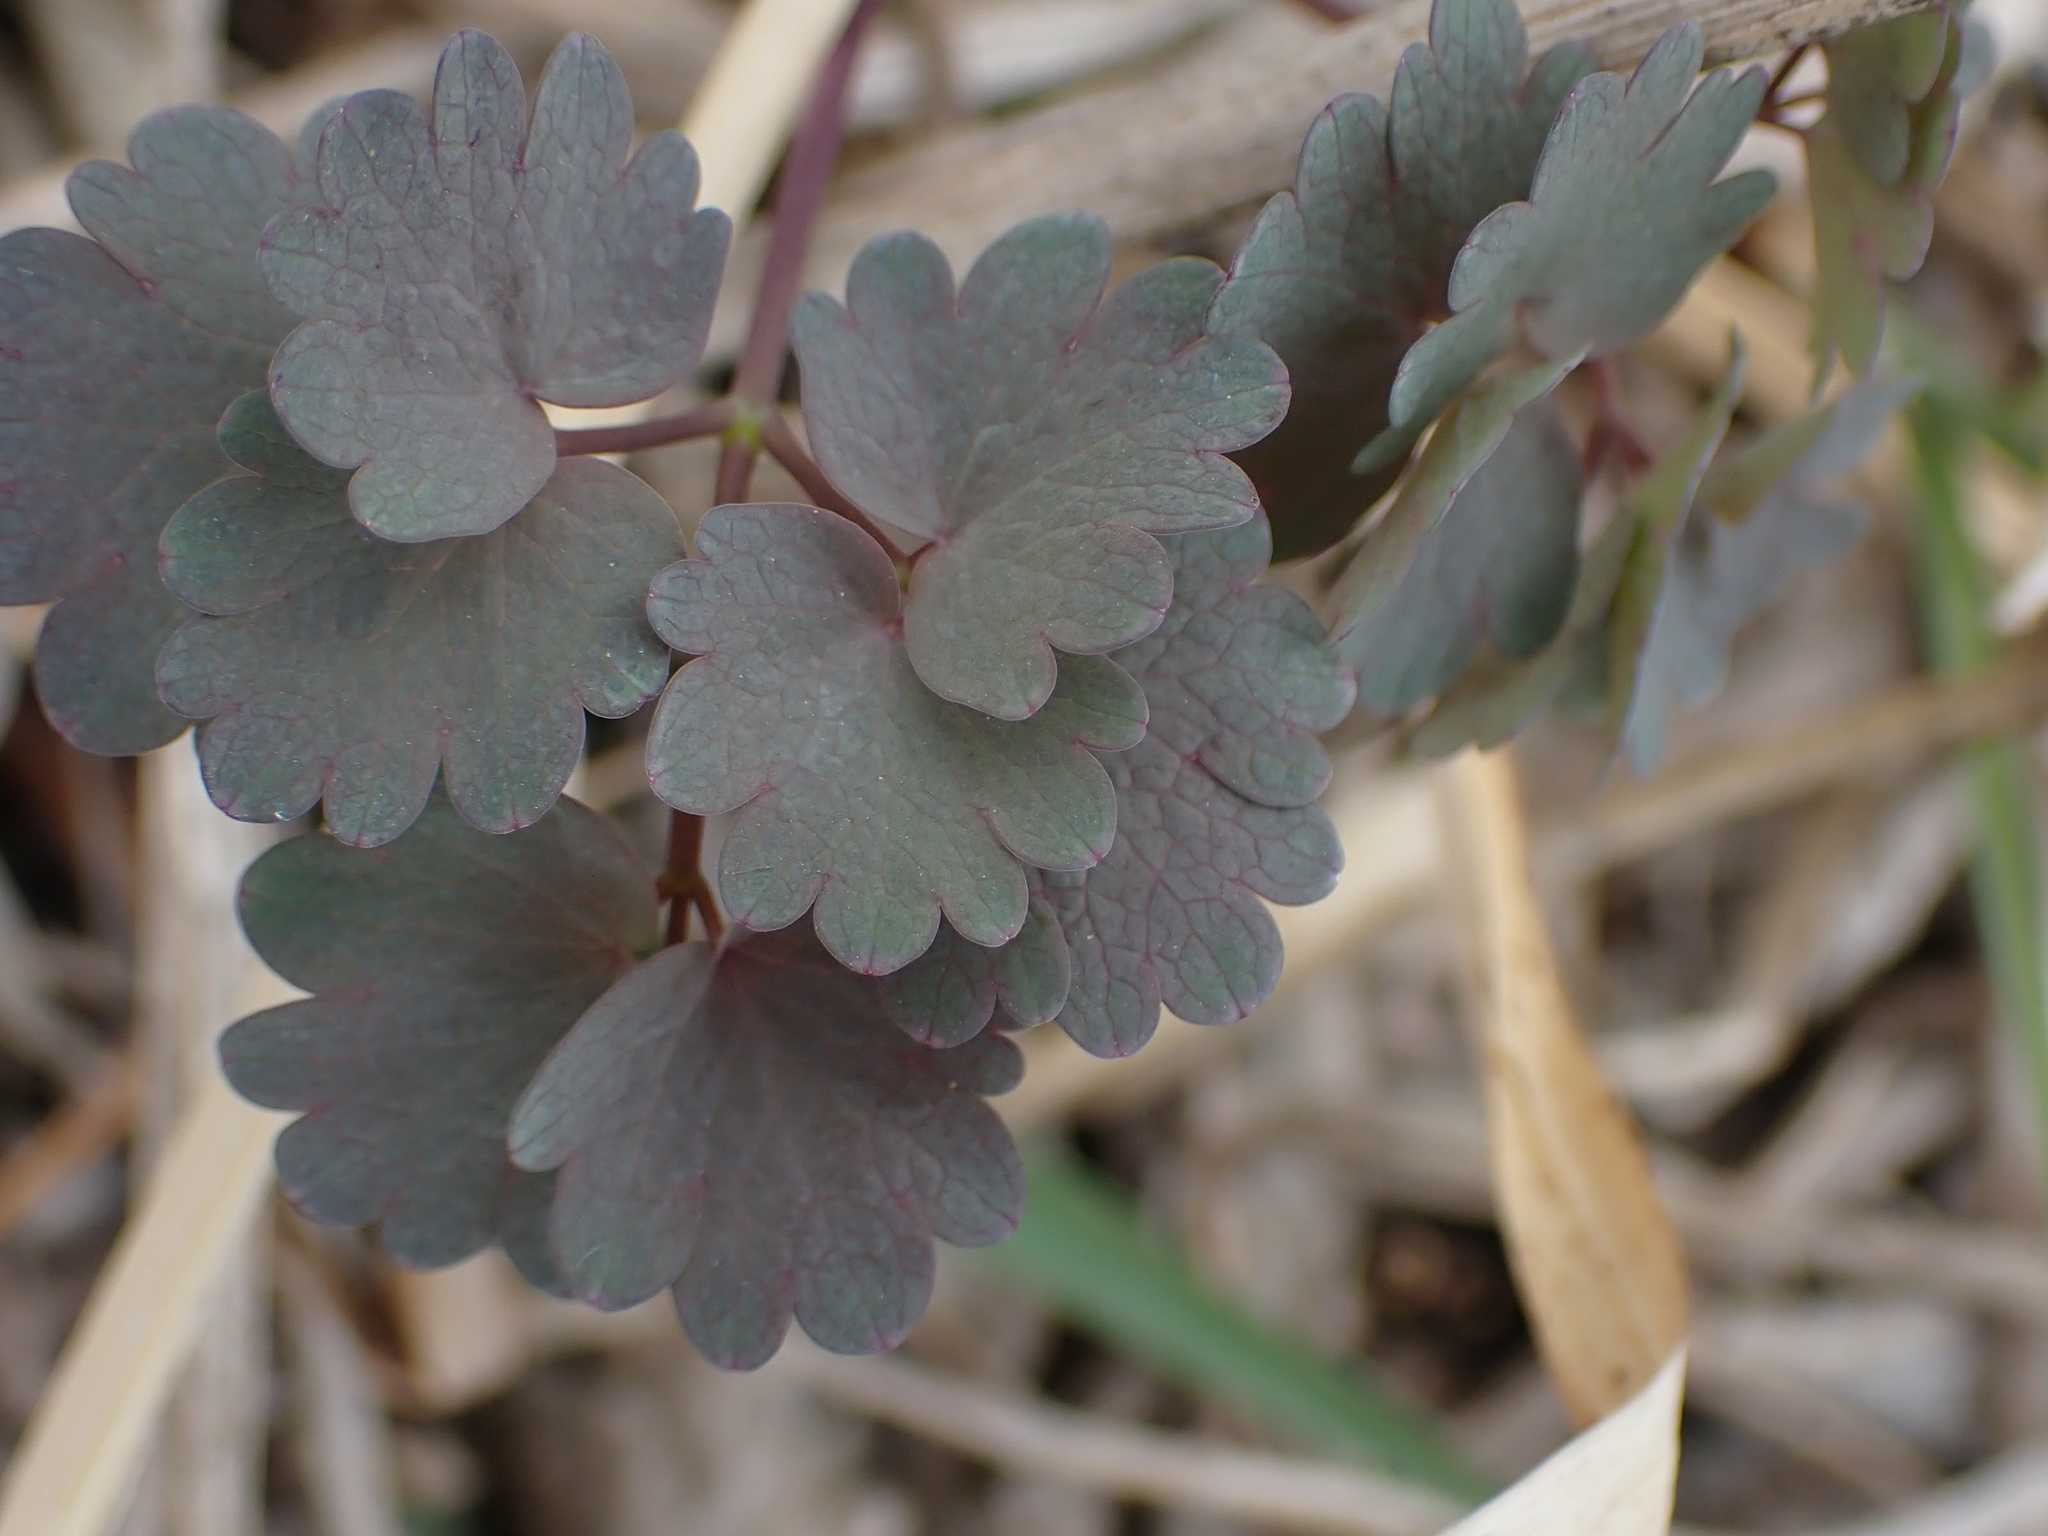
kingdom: Plantae
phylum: Tracheophyta
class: Magnoliopsida
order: Ranunculales
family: Ranunculaceae
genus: Thalictrum
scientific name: Thalictrum venulosum
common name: Early meadow-rue
